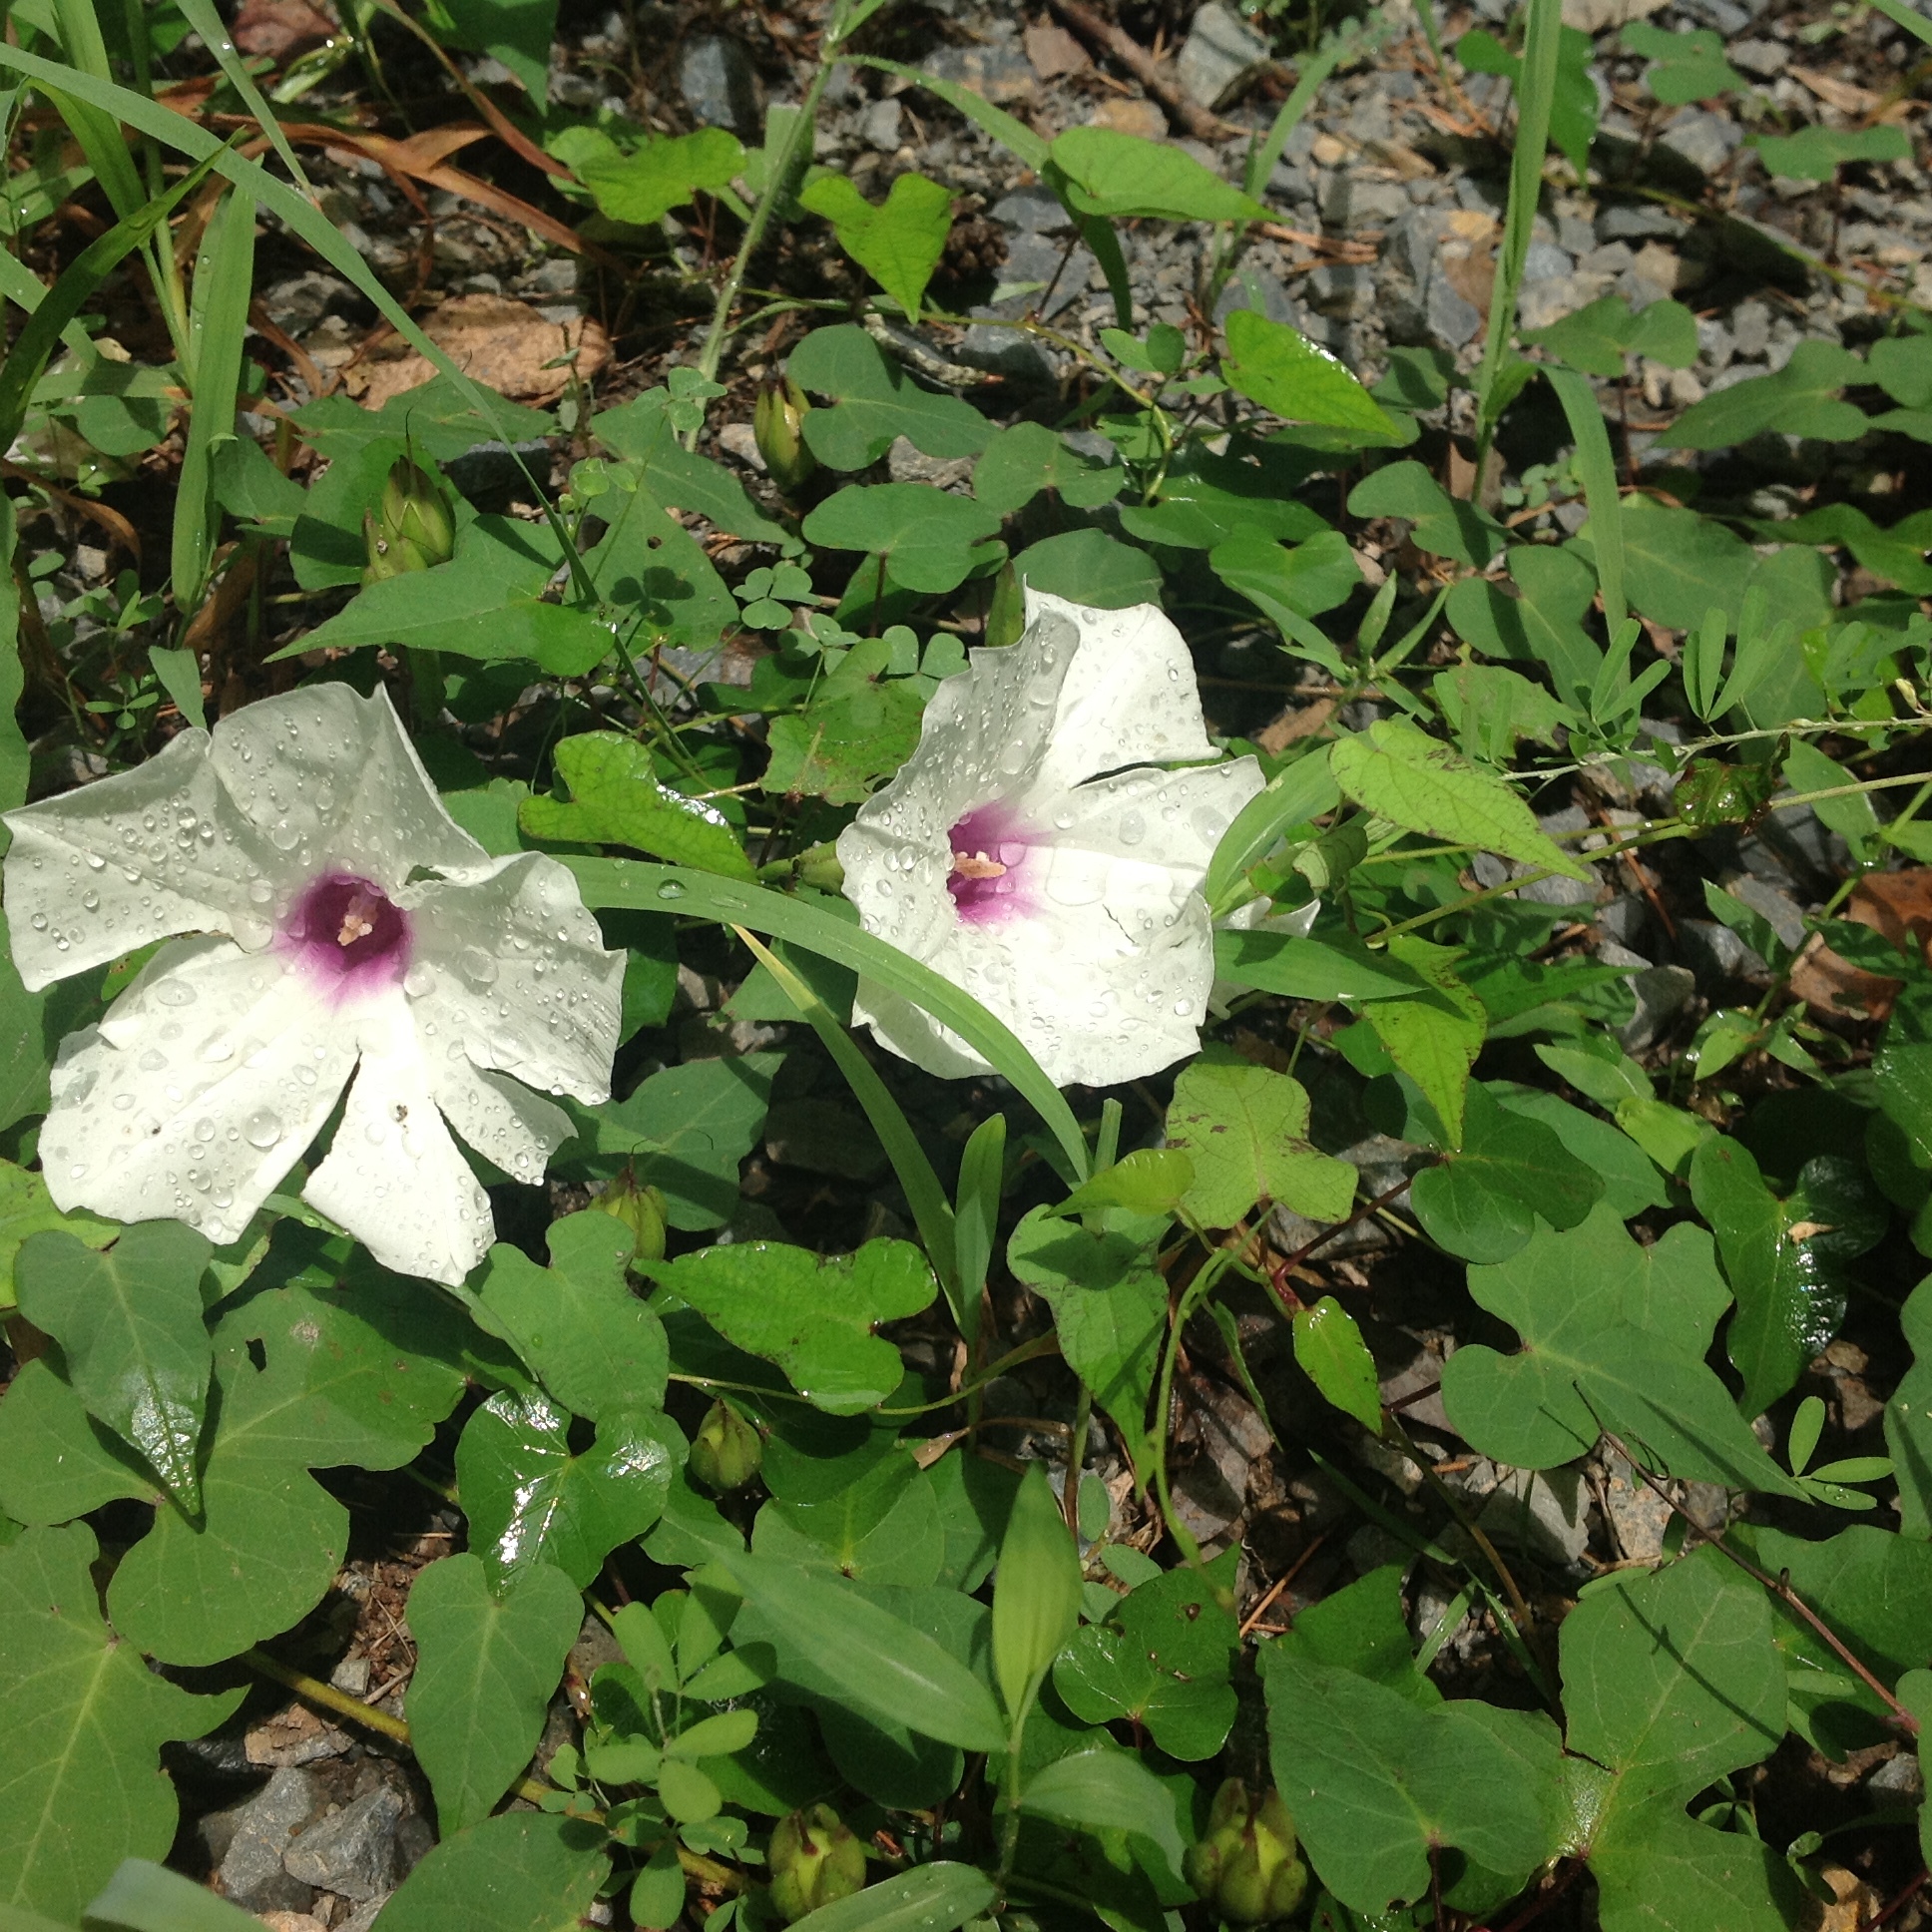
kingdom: Plantae
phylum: Tracheophyta
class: Magnoliopsida
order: Solanales
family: Convolvulaceae
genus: Ipomoea
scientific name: Ipomoea pandurata
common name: Man-of-the-earth
